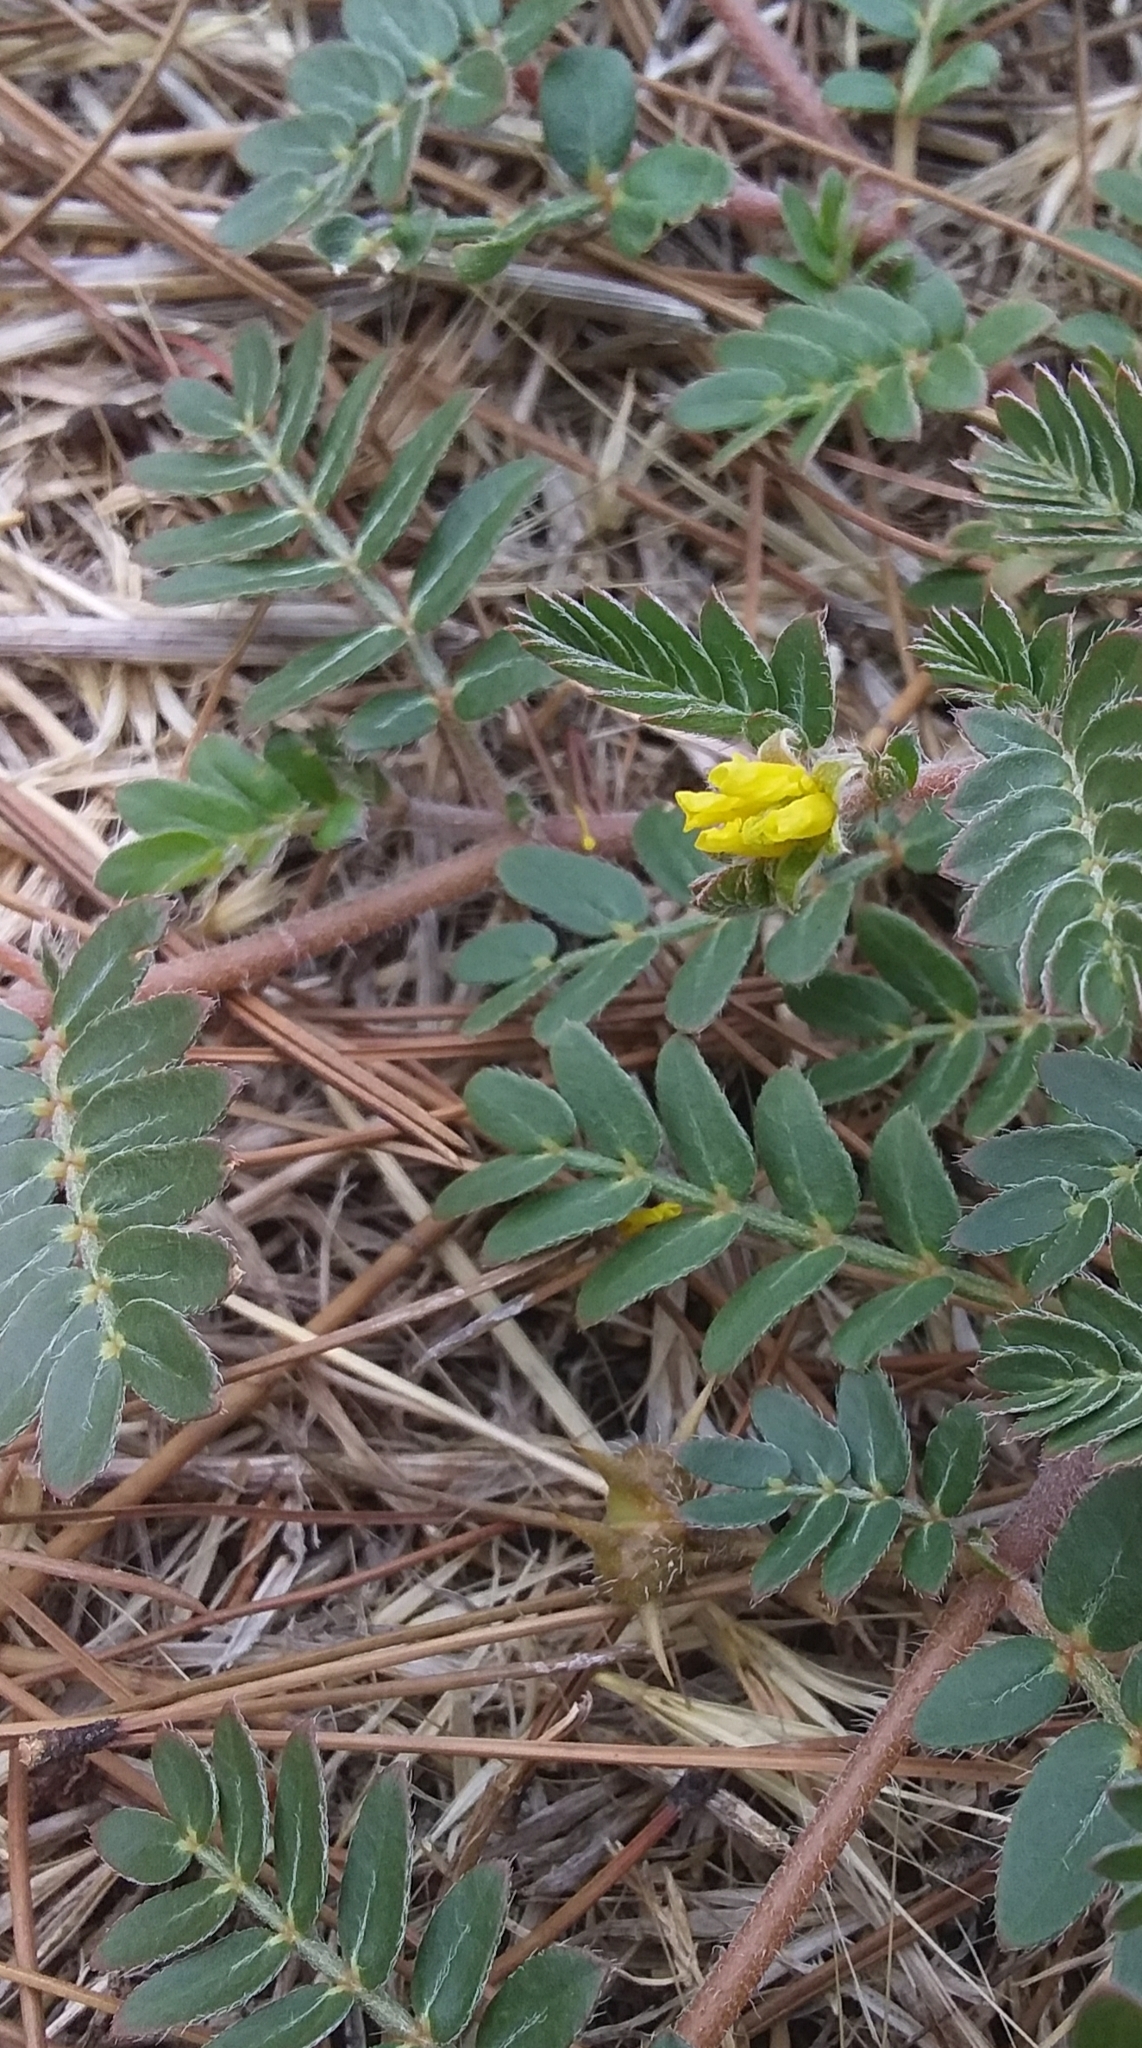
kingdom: Plantae
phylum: Tracheophyta
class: Magnoliopsida
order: Zygophyllales
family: Zygophyllaceae
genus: Tribulus
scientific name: Tribulus terrestris
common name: Puncturevine
